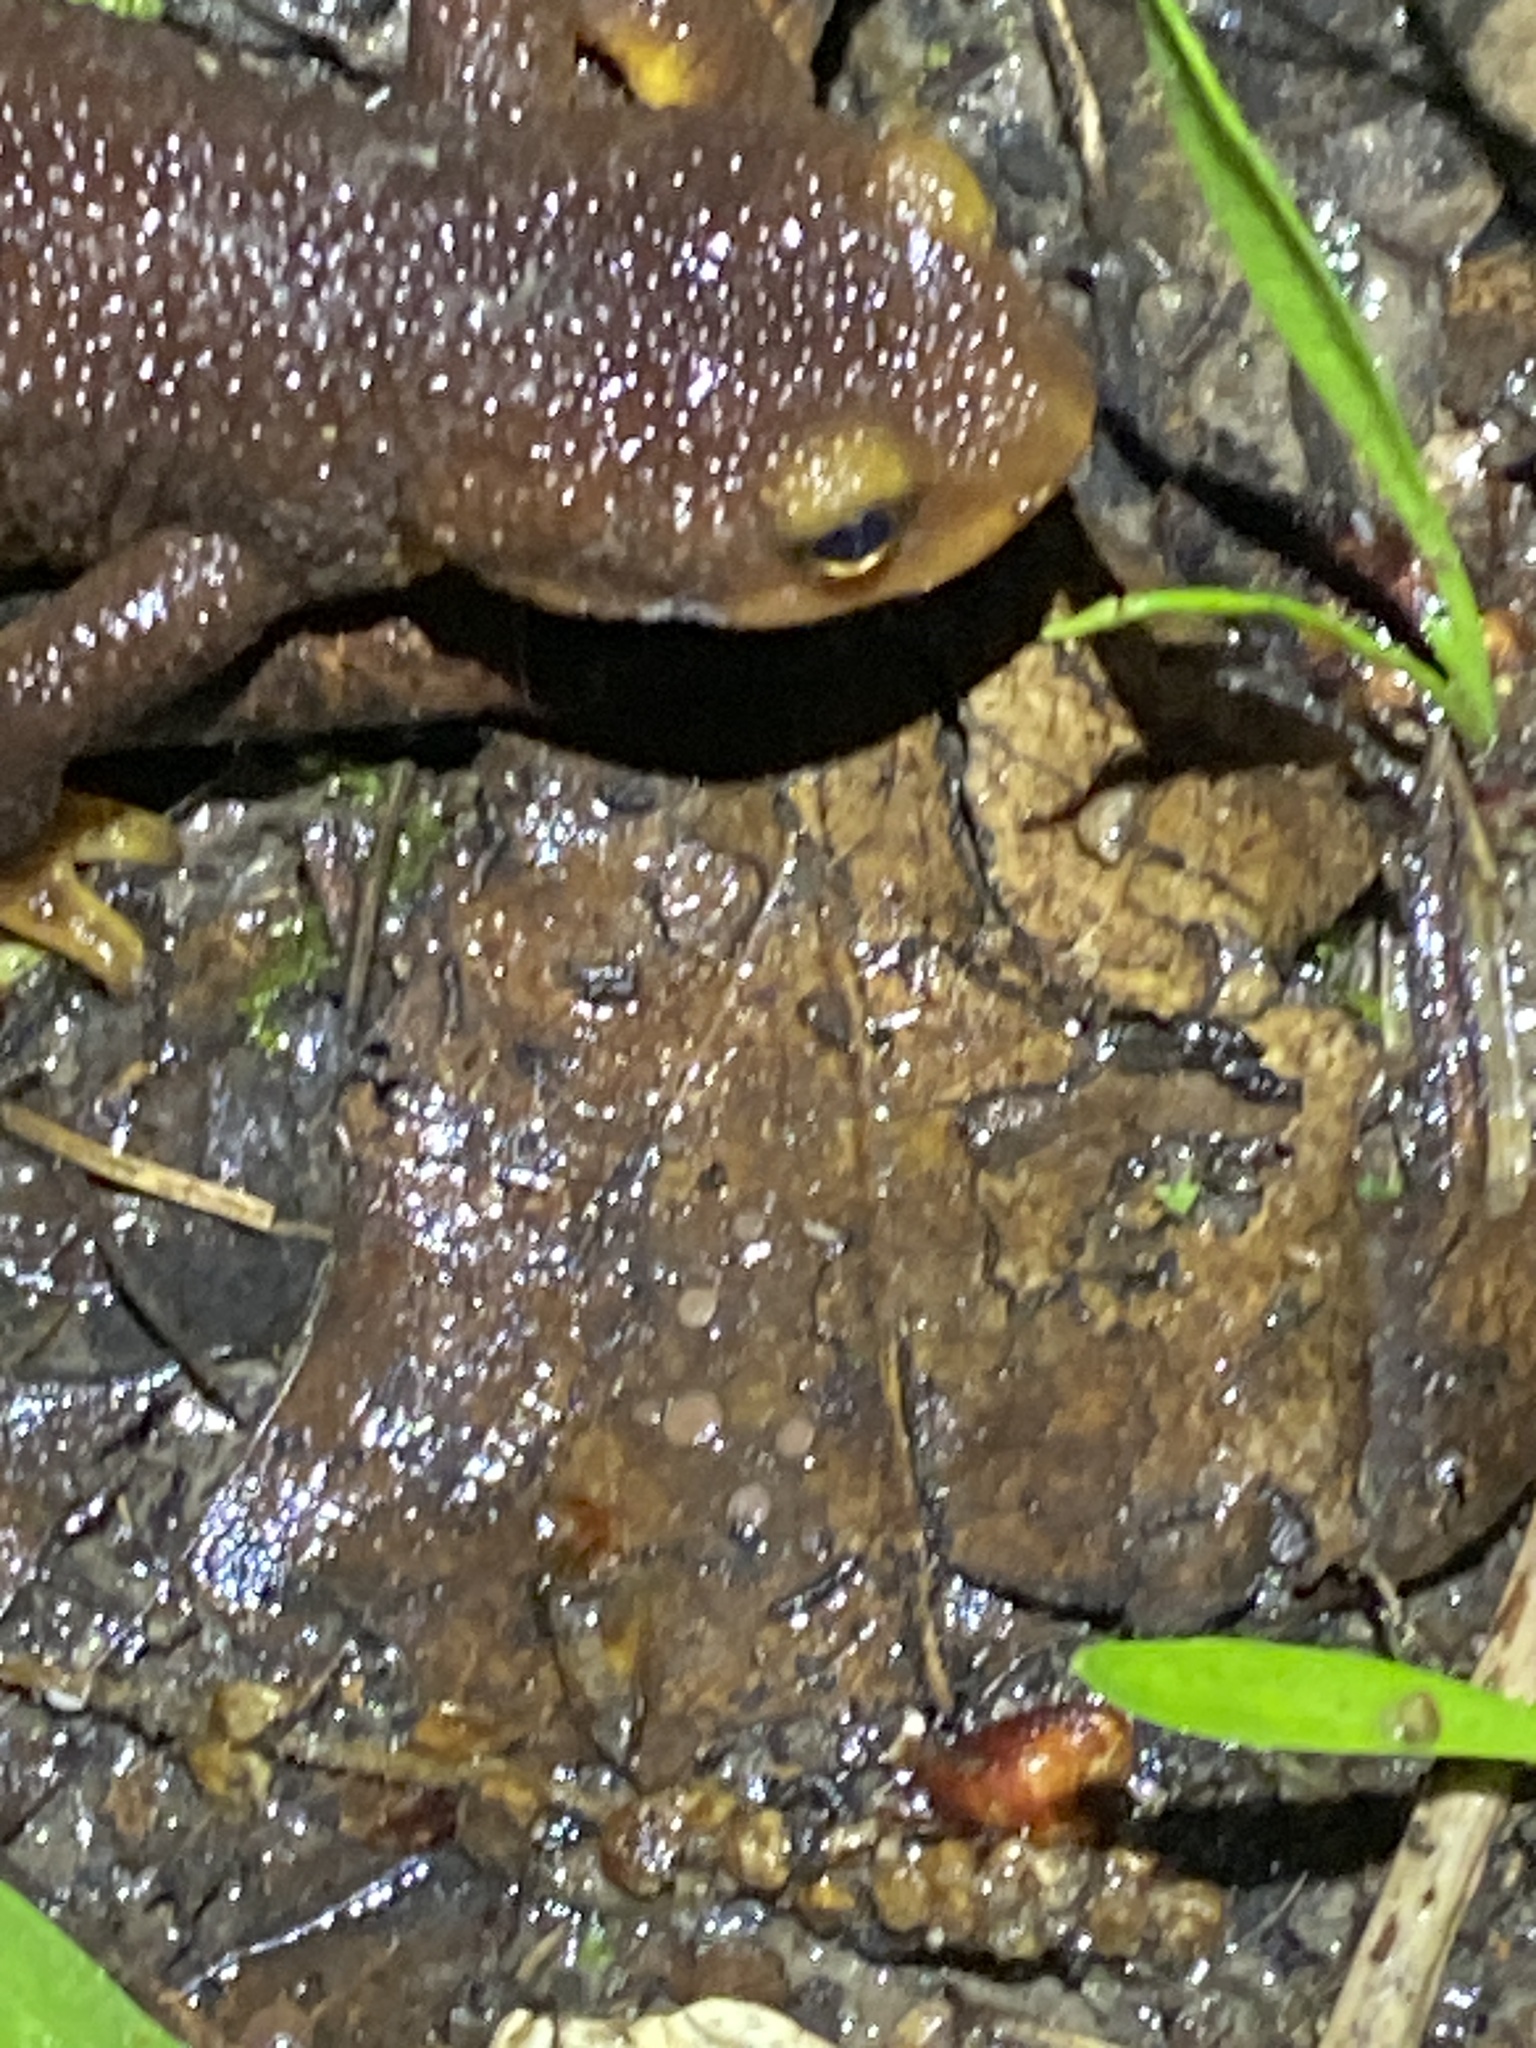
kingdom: Animalia
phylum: Chordata
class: Amphibia
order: Caudata
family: Salamandridae
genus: Taricha
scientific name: Taricha torosa
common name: California newt
